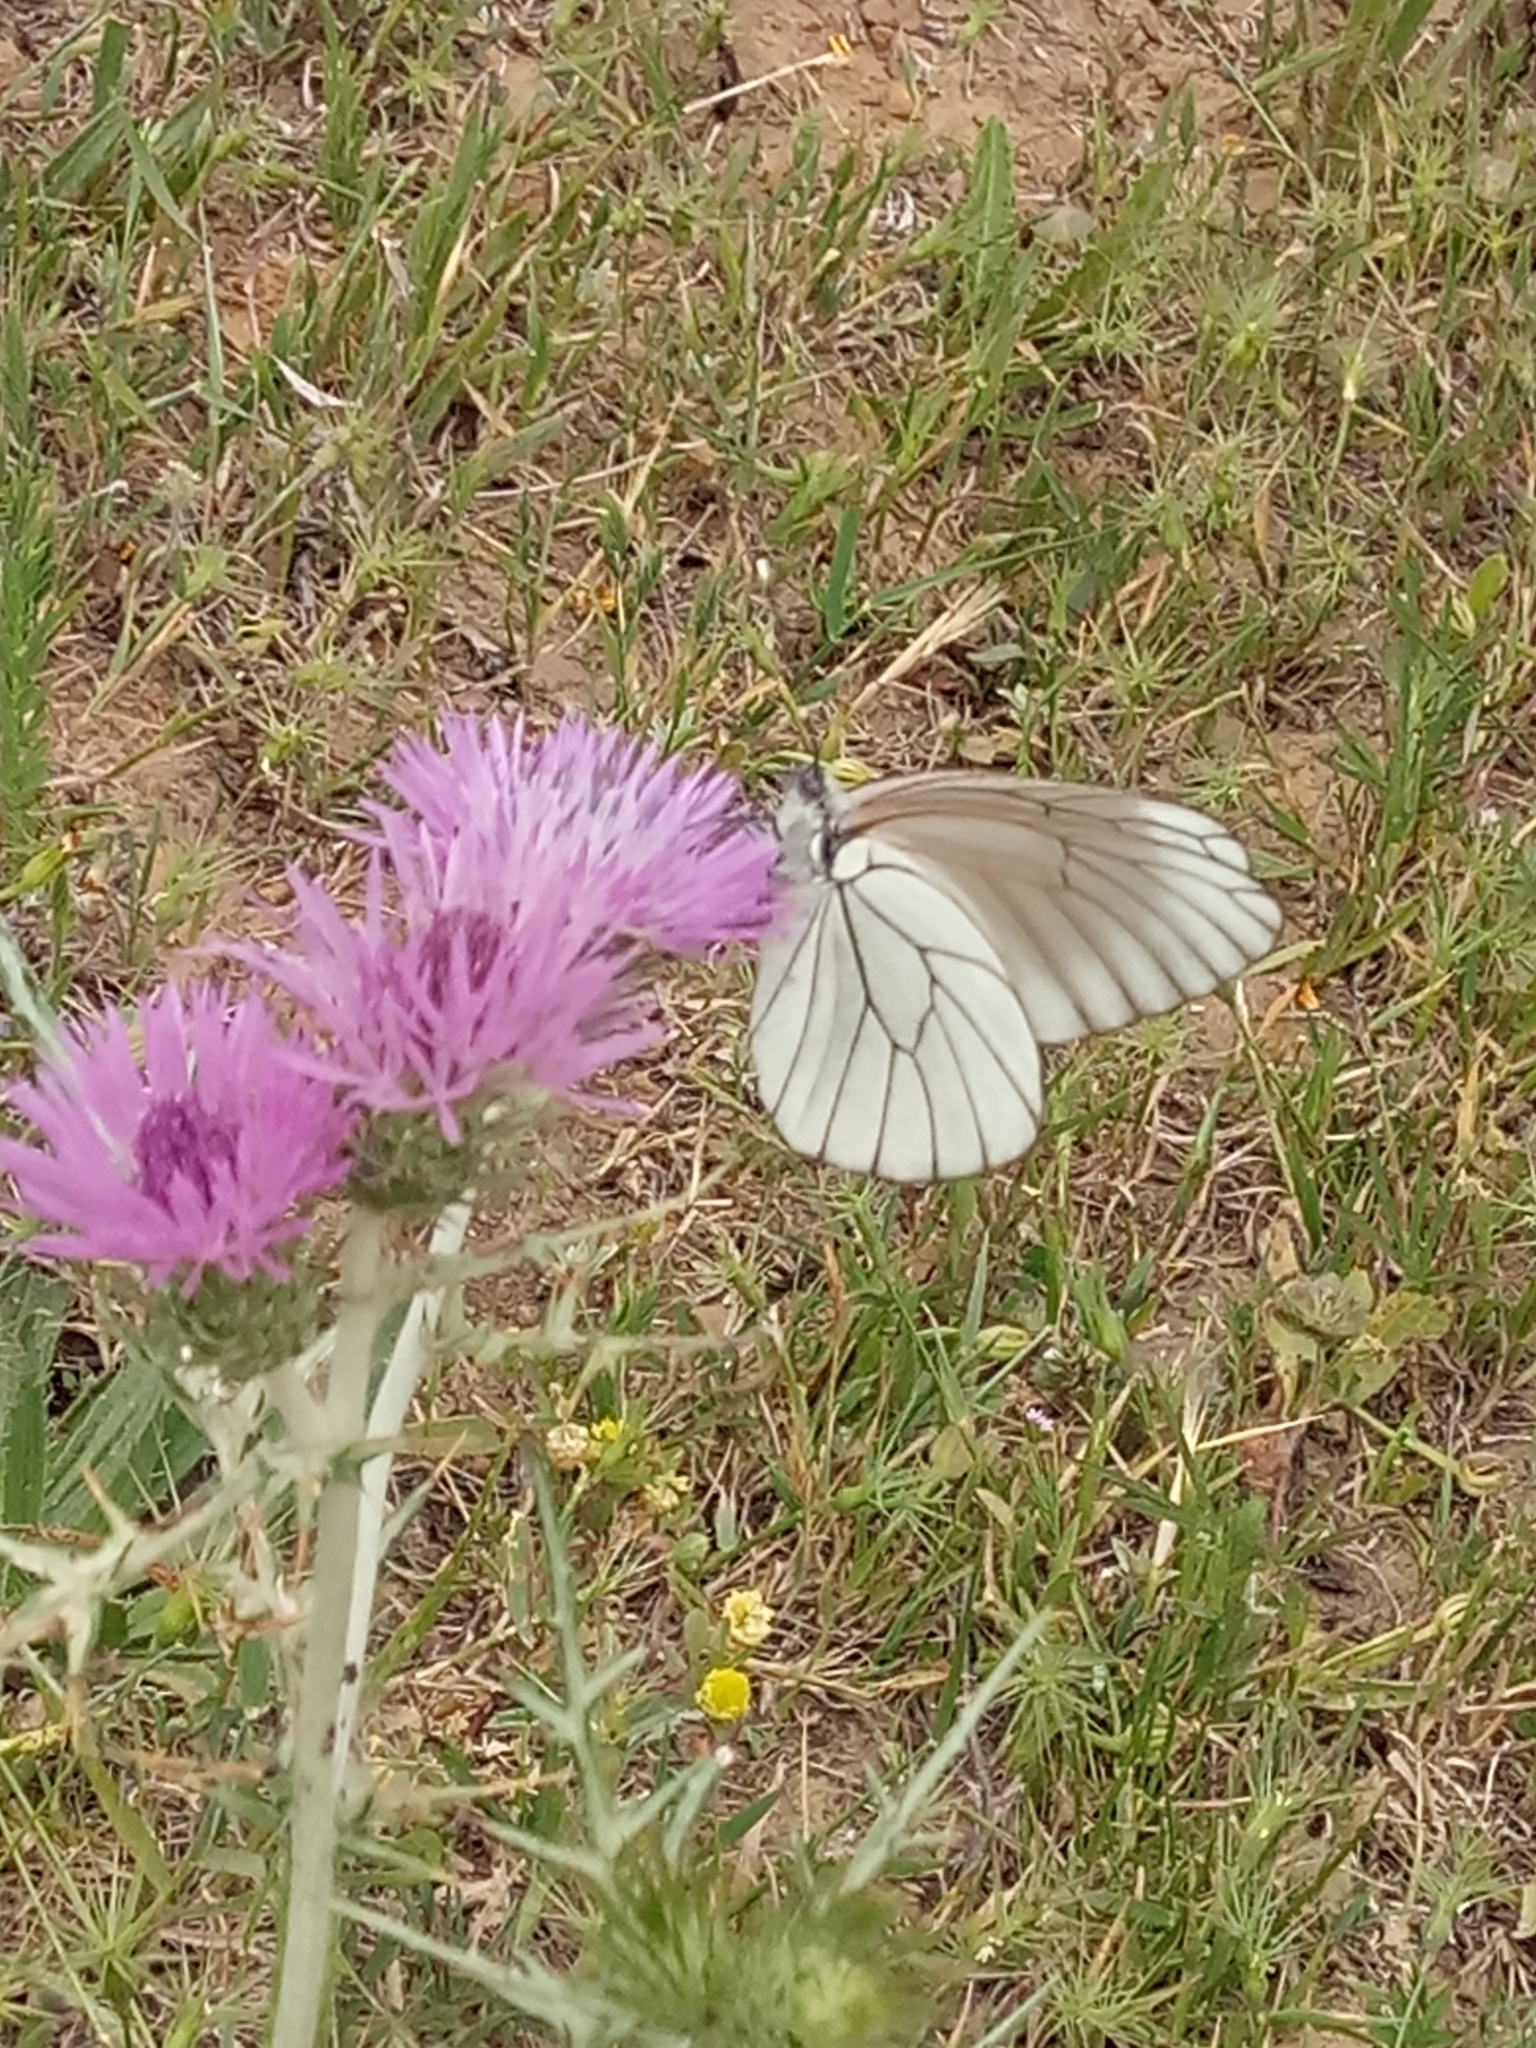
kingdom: Animalia
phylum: Arthropoda
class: Insecta
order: Lepidoptera
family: Pieridae
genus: Aporia
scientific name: Aporia crataegi
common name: Black-veined white
